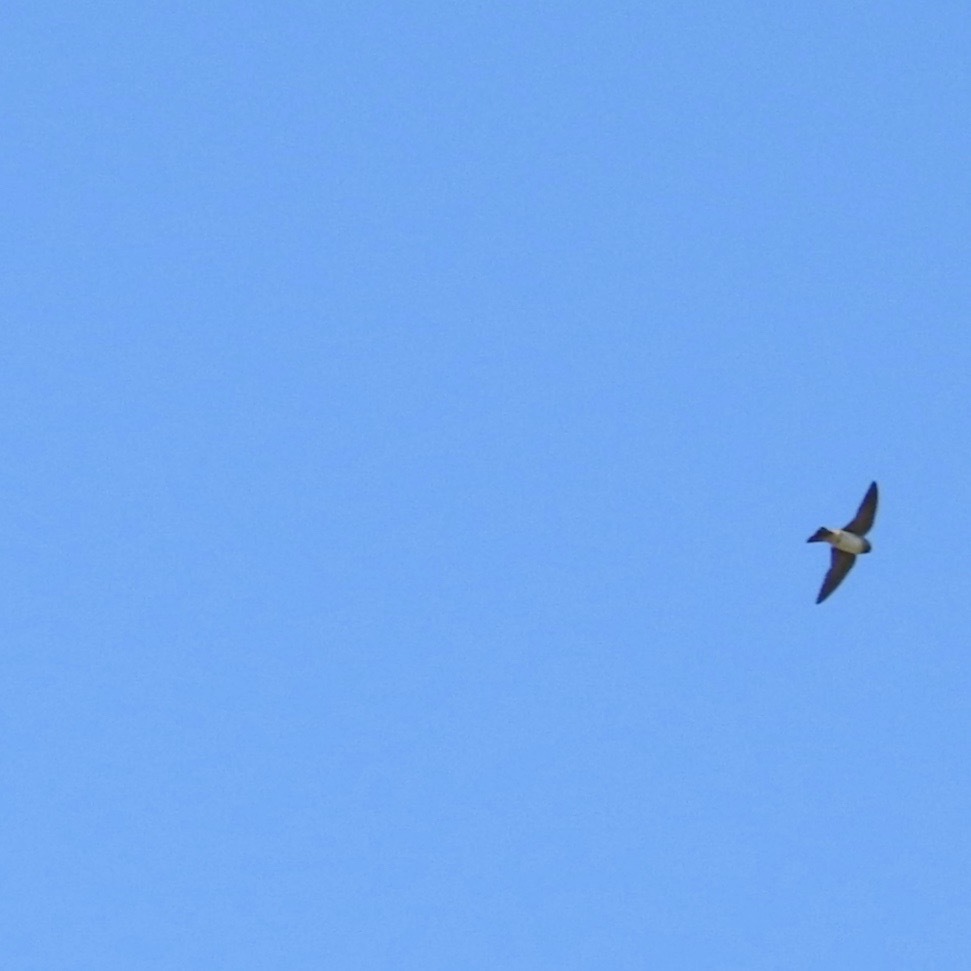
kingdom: Animalia
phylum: Chordata
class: Aves
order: Passeriformes
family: Hirundinidae
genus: Petrochelidon
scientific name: Petrochelidon pyrrhonota
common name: American cliff swallow
